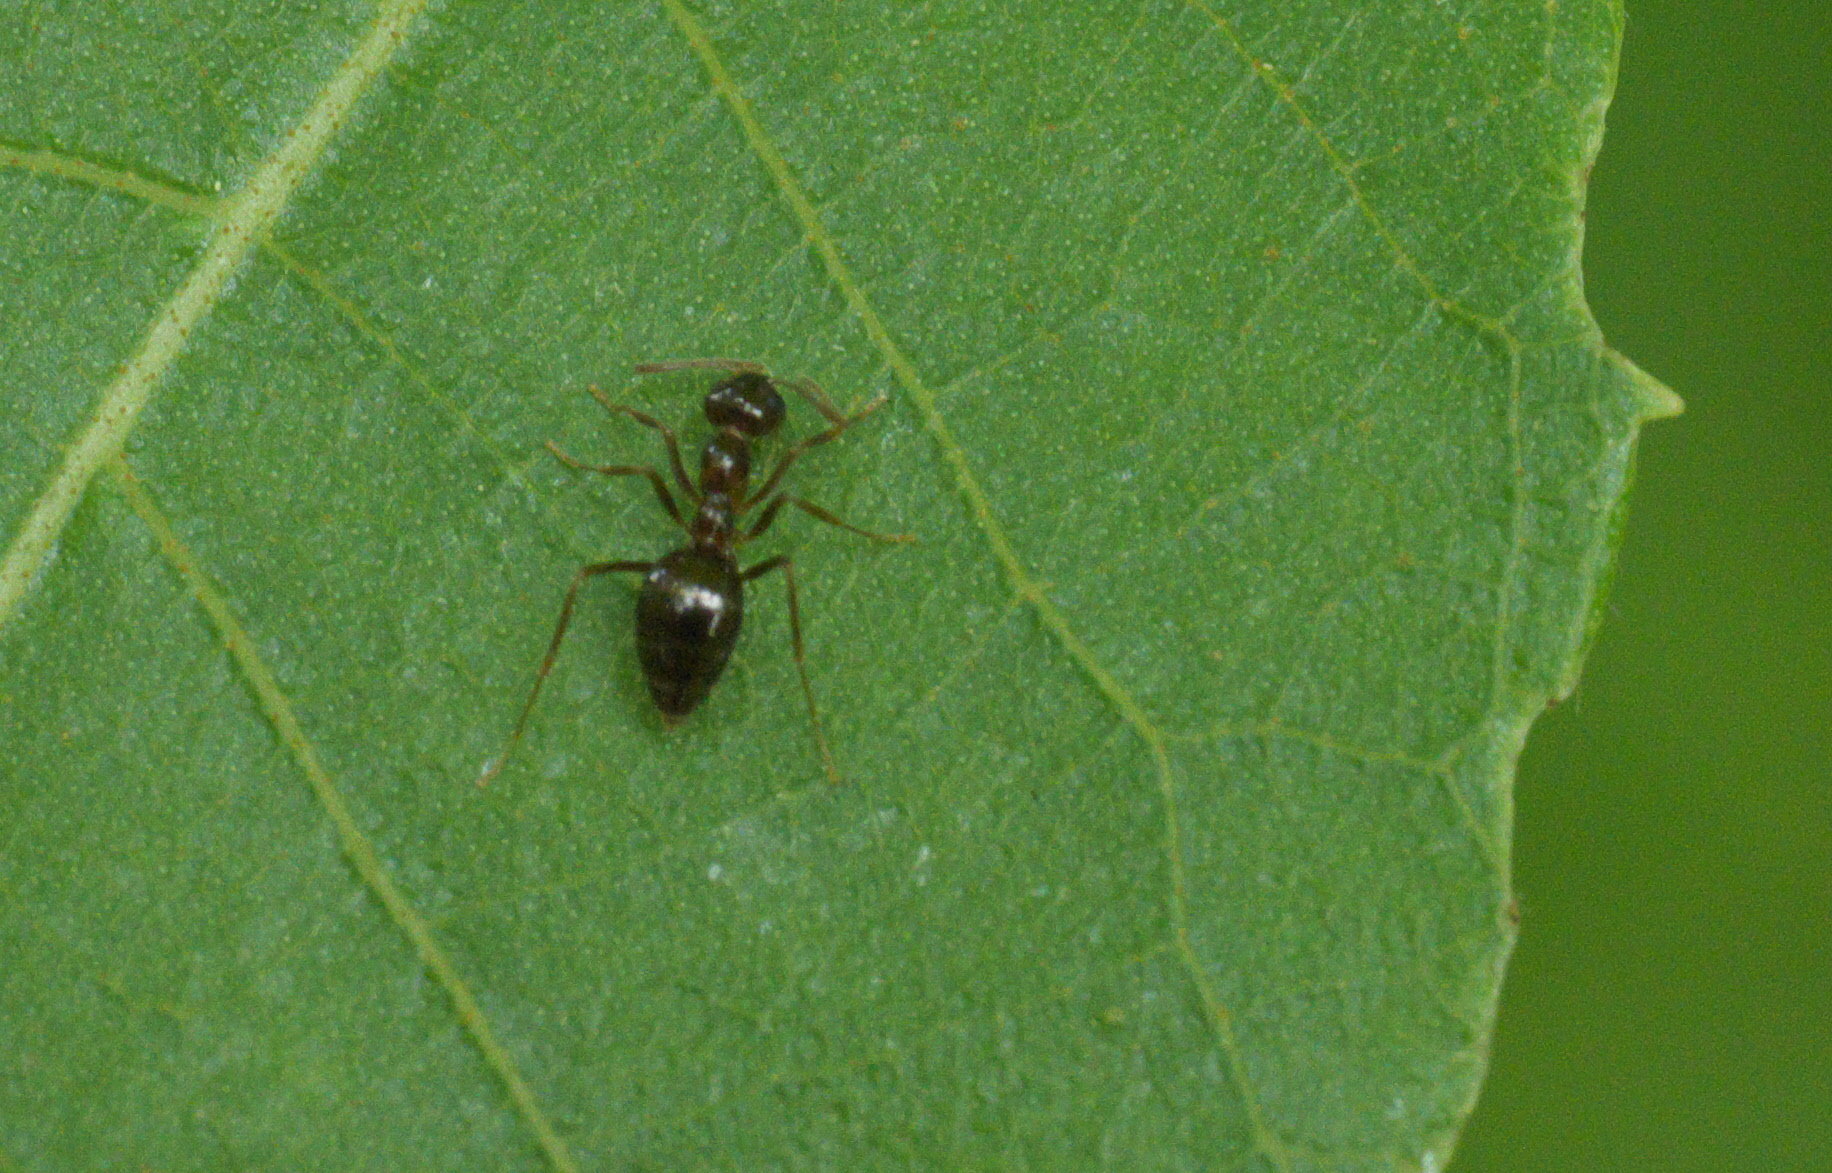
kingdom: Animalia
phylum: Arthropoda
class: Insecta
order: Hymenoptera
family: Formicidae
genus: Prenolepis
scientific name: Prenolepis imparis
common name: Small honey ant
